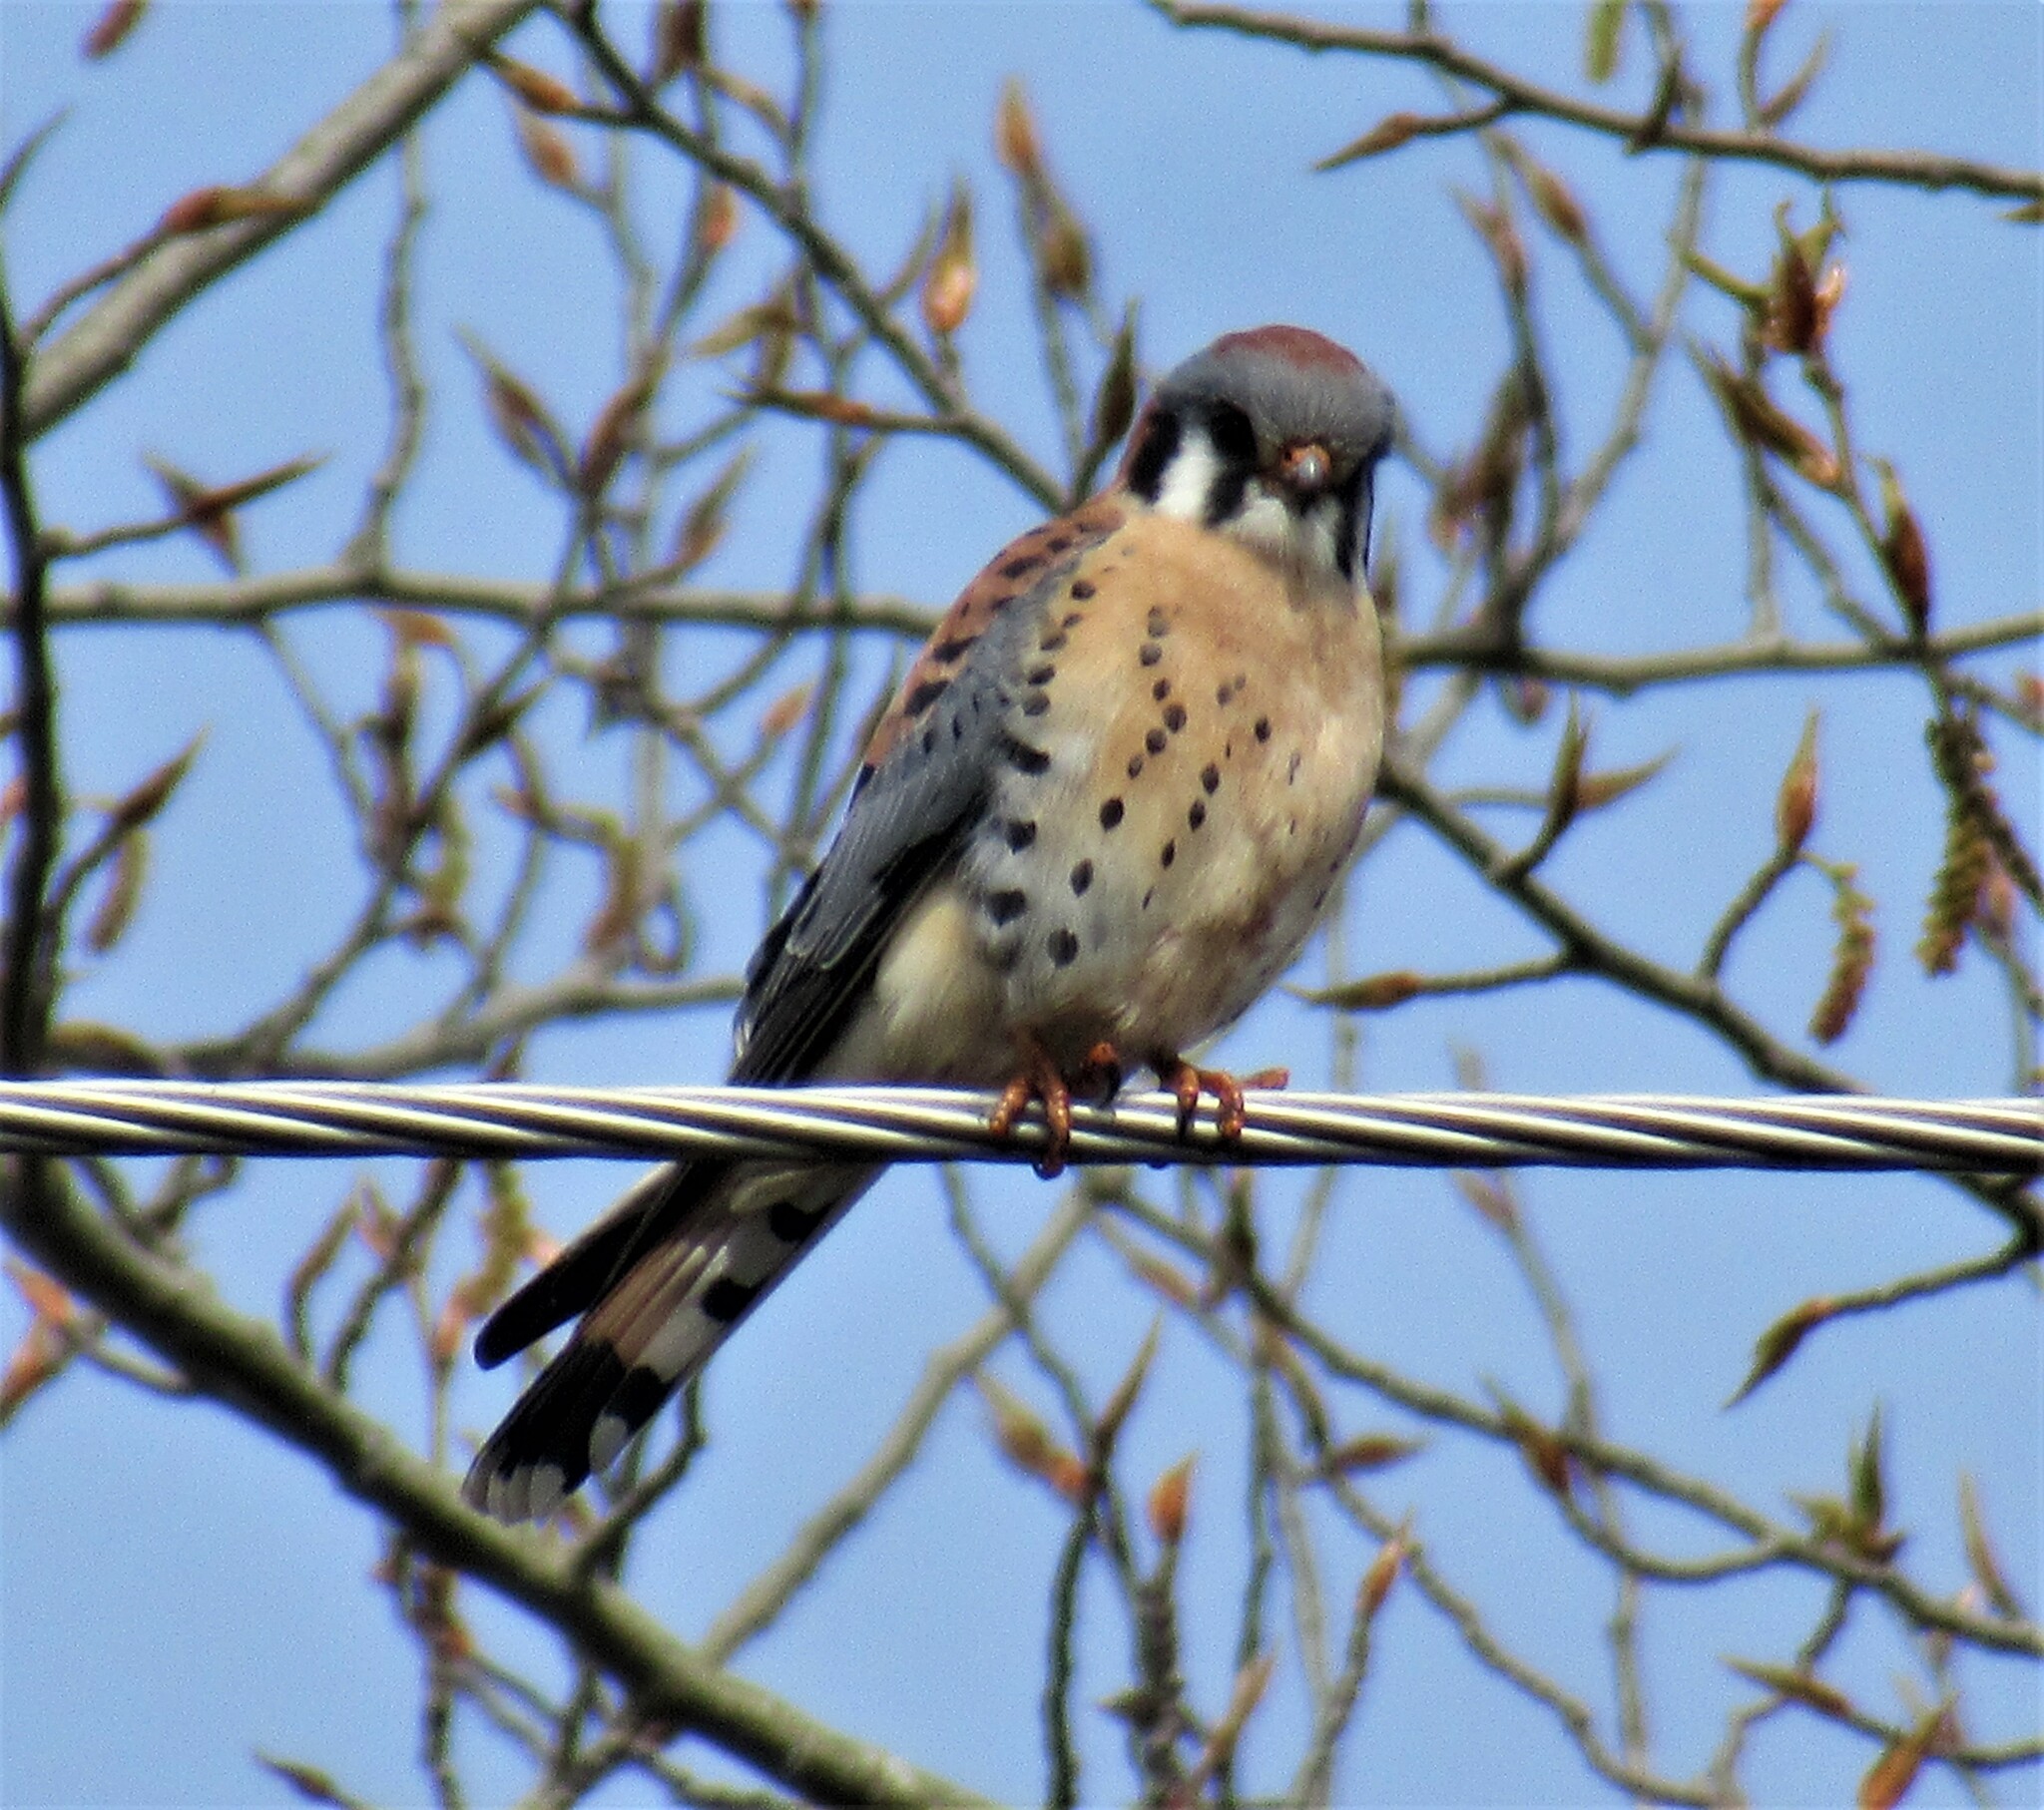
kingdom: Animalia
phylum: Chordata
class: Aves
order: Falconiformes
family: Falconidae
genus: Falco
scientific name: Falco sparverius
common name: American kestrel
